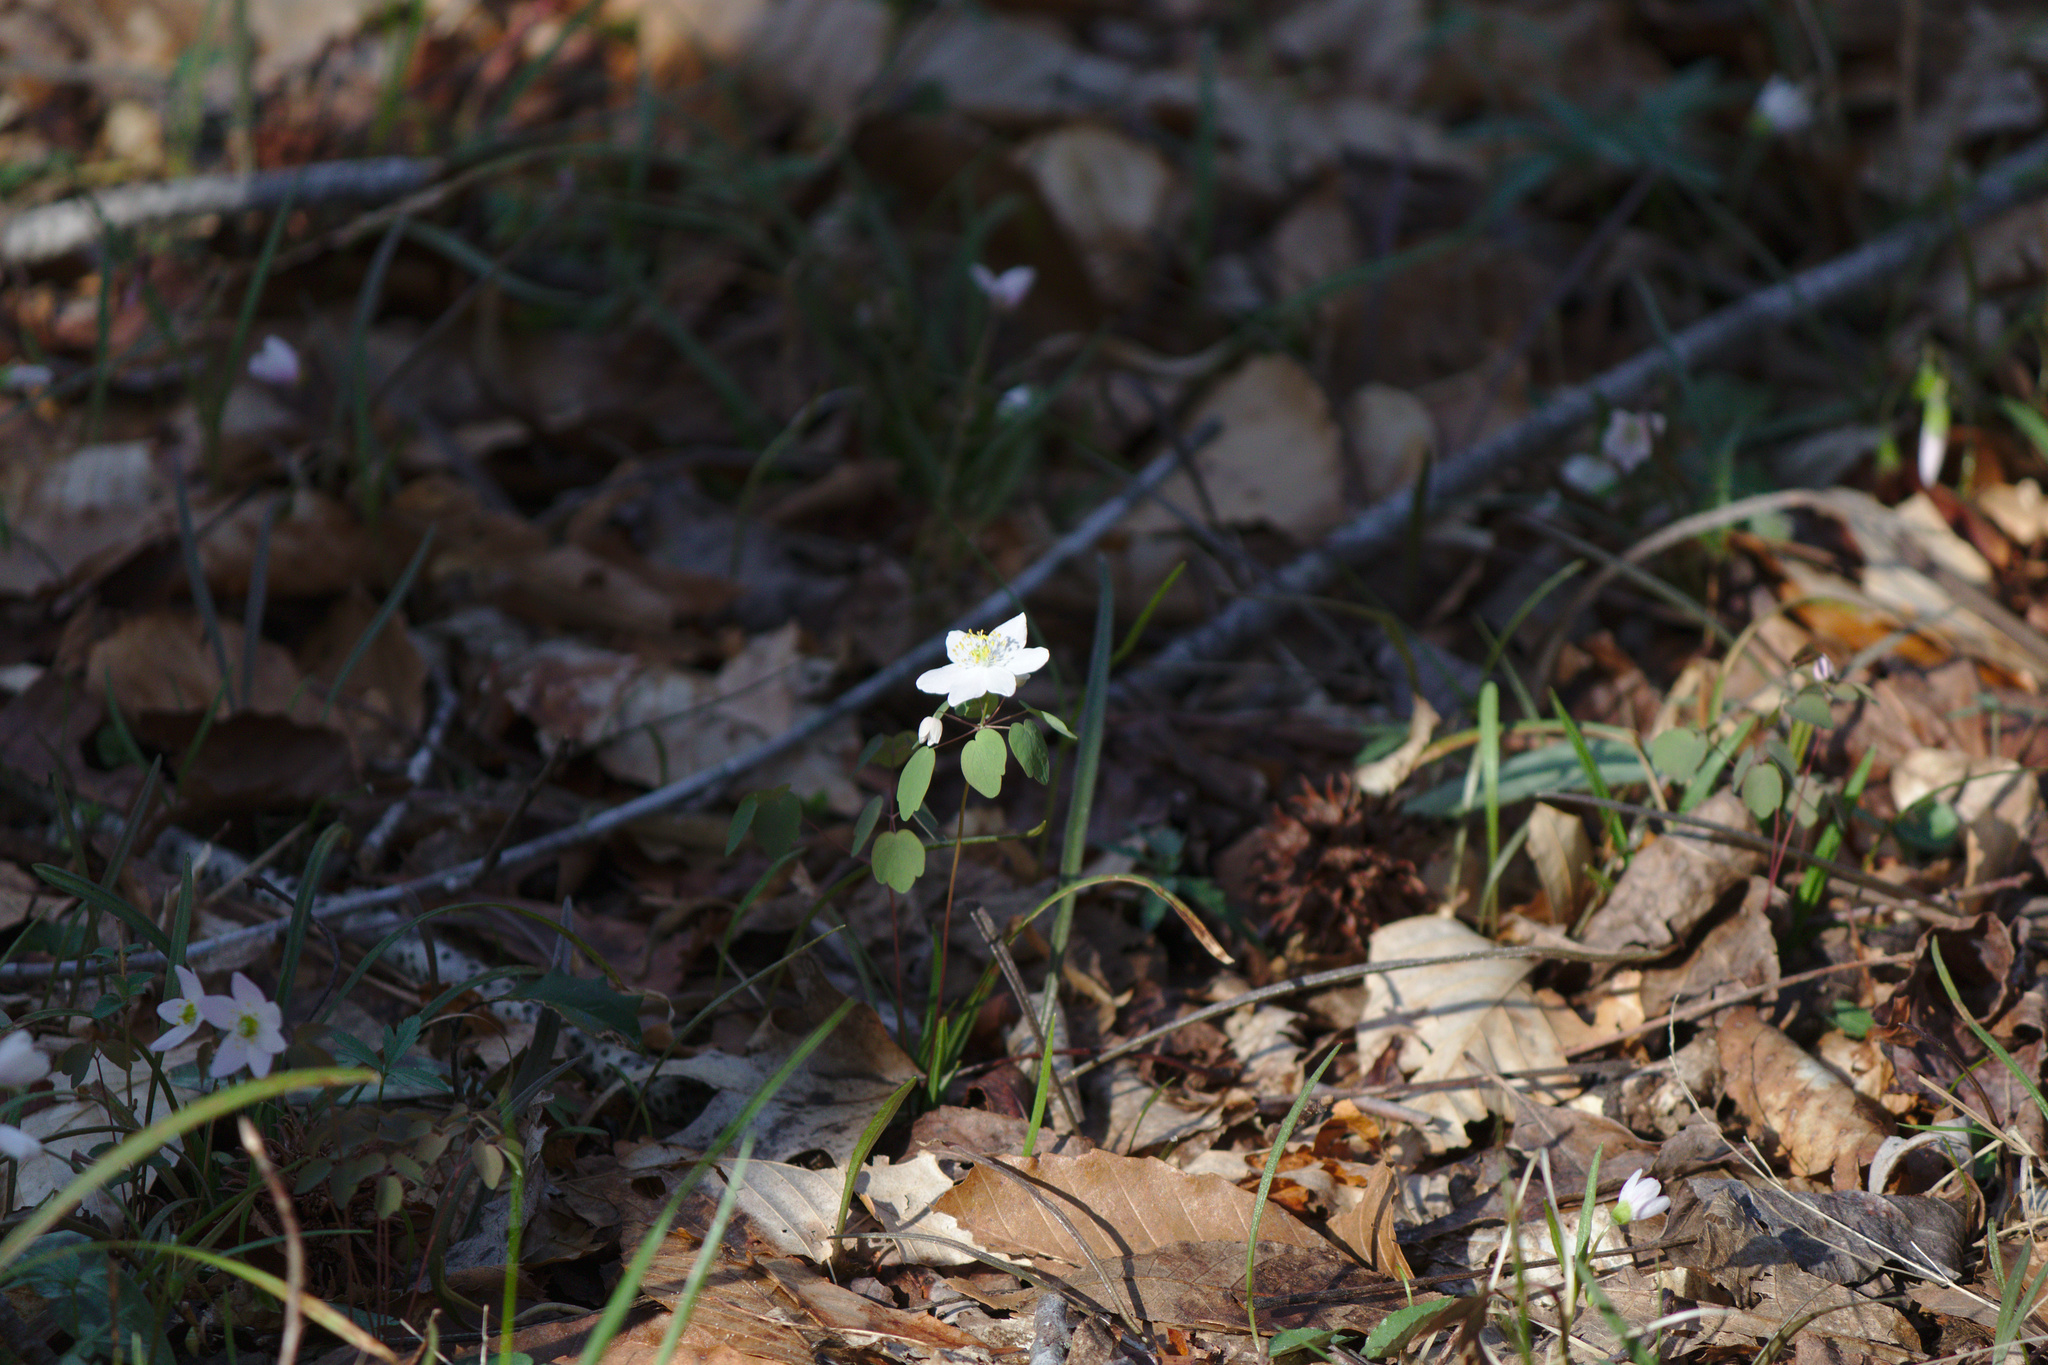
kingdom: Plantae
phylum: Tracheophyta
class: Magnoliopsida
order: Ranunculales
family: Ranunculaceae
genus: Thalictrum
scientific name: Thalictrum thalictroides
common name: Rue-anemone
